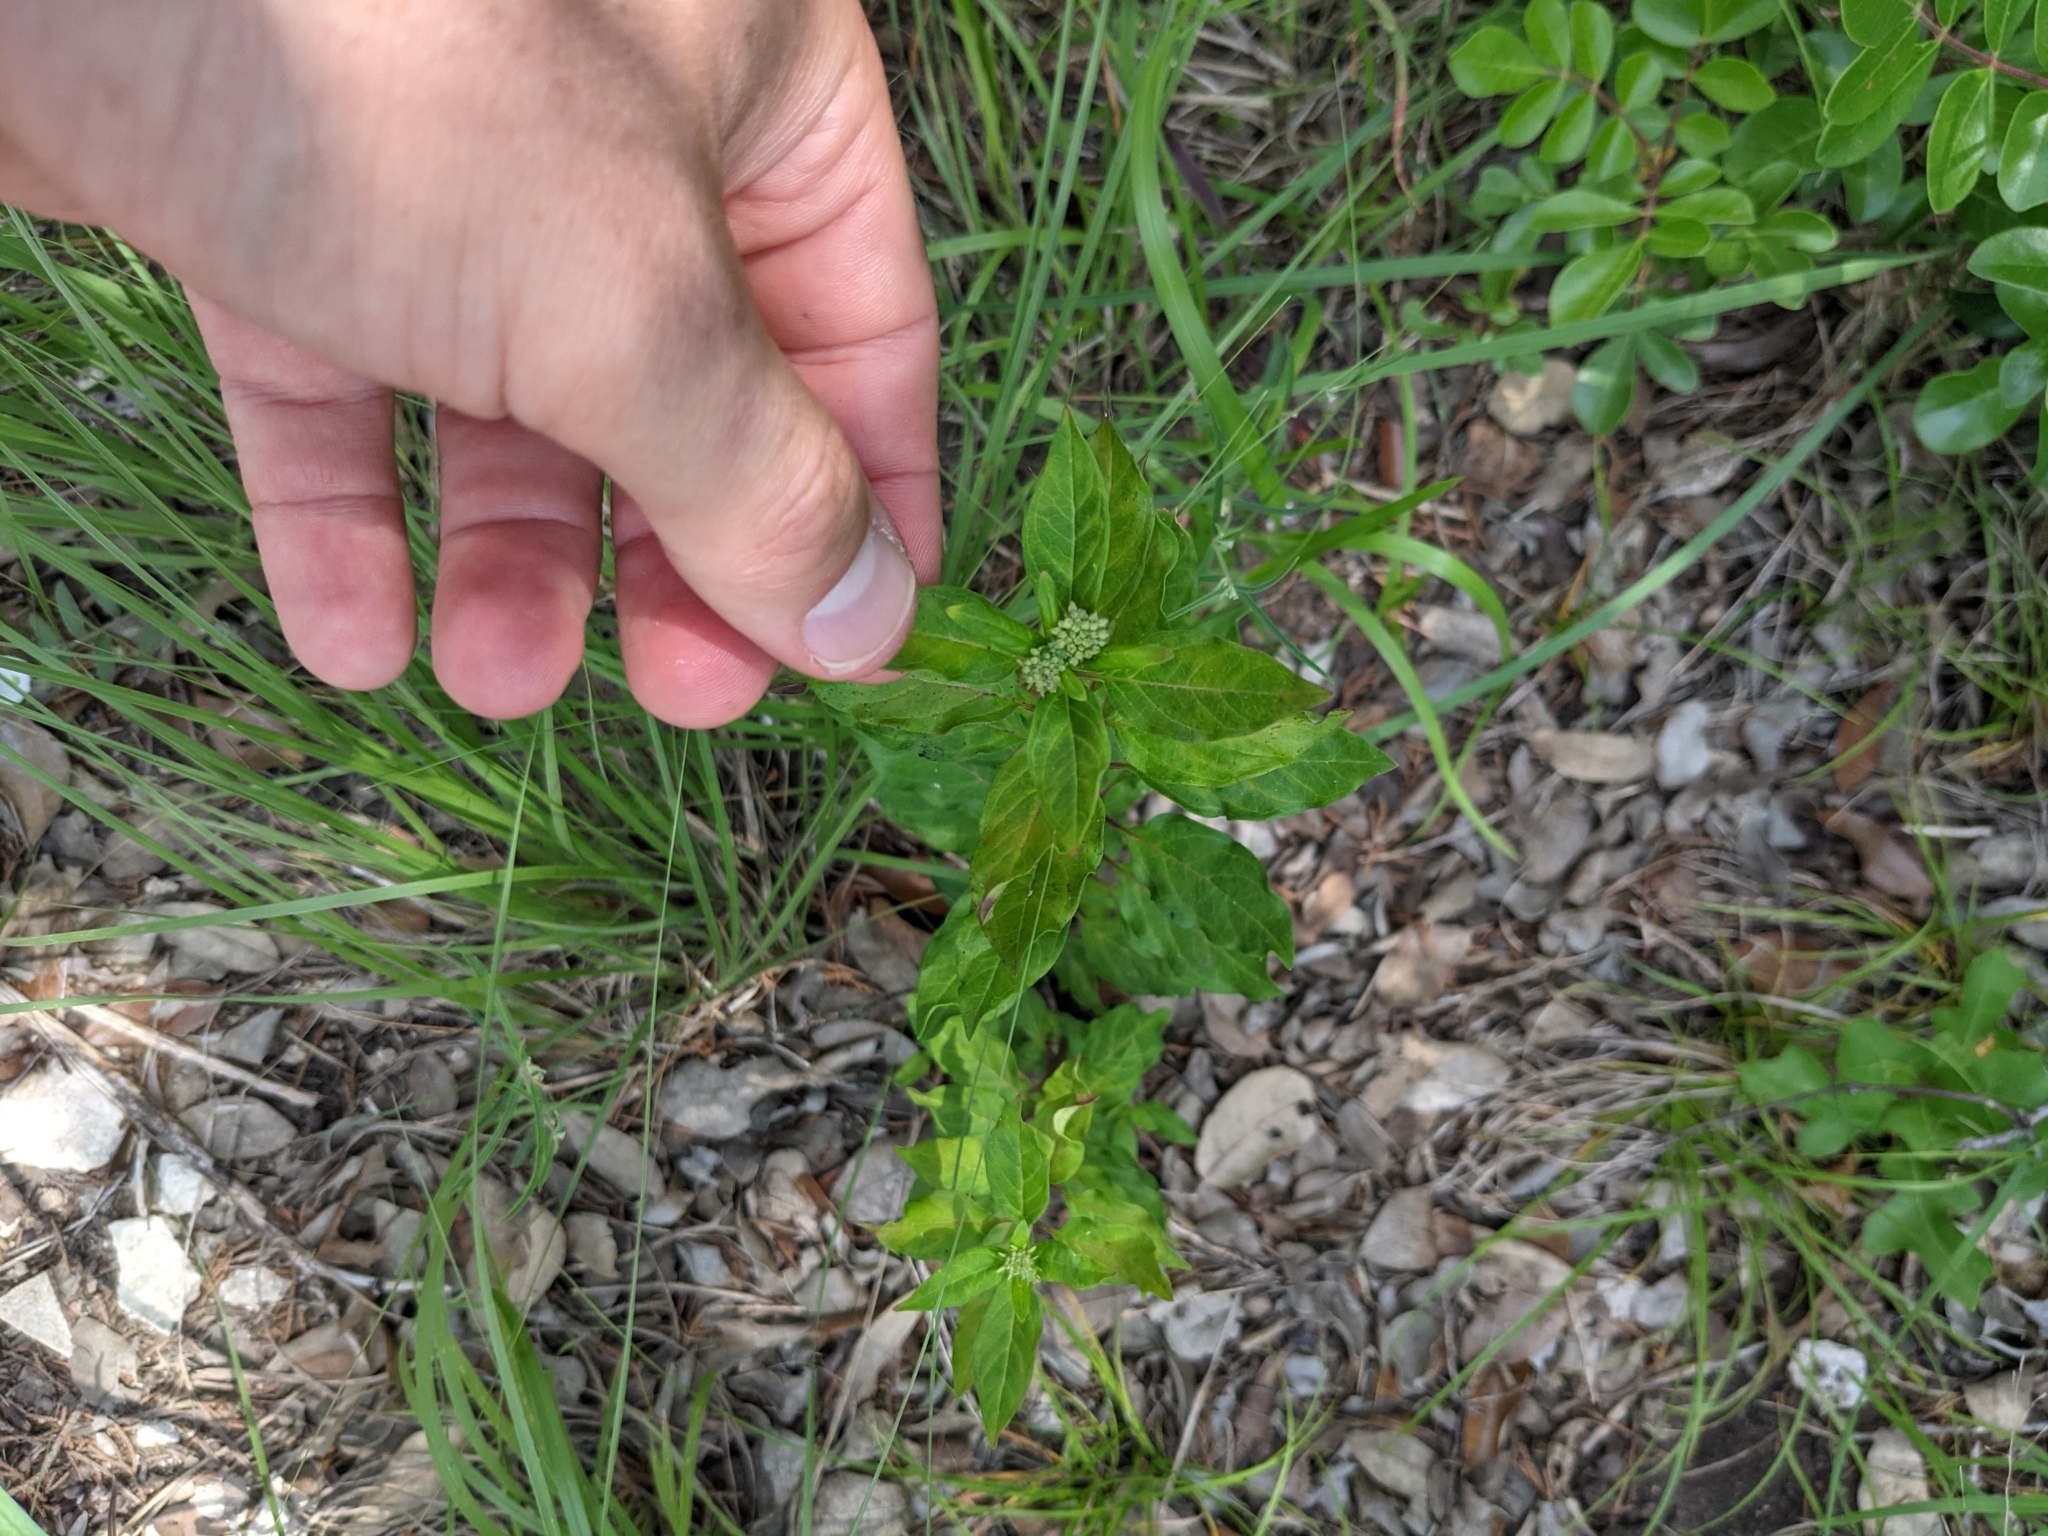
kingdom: Plantae
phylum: Tracheophyta
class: Magnoliopsida
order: Gentianales
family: Apocynaceae
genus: Asclepias
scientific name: Asclepias texana
